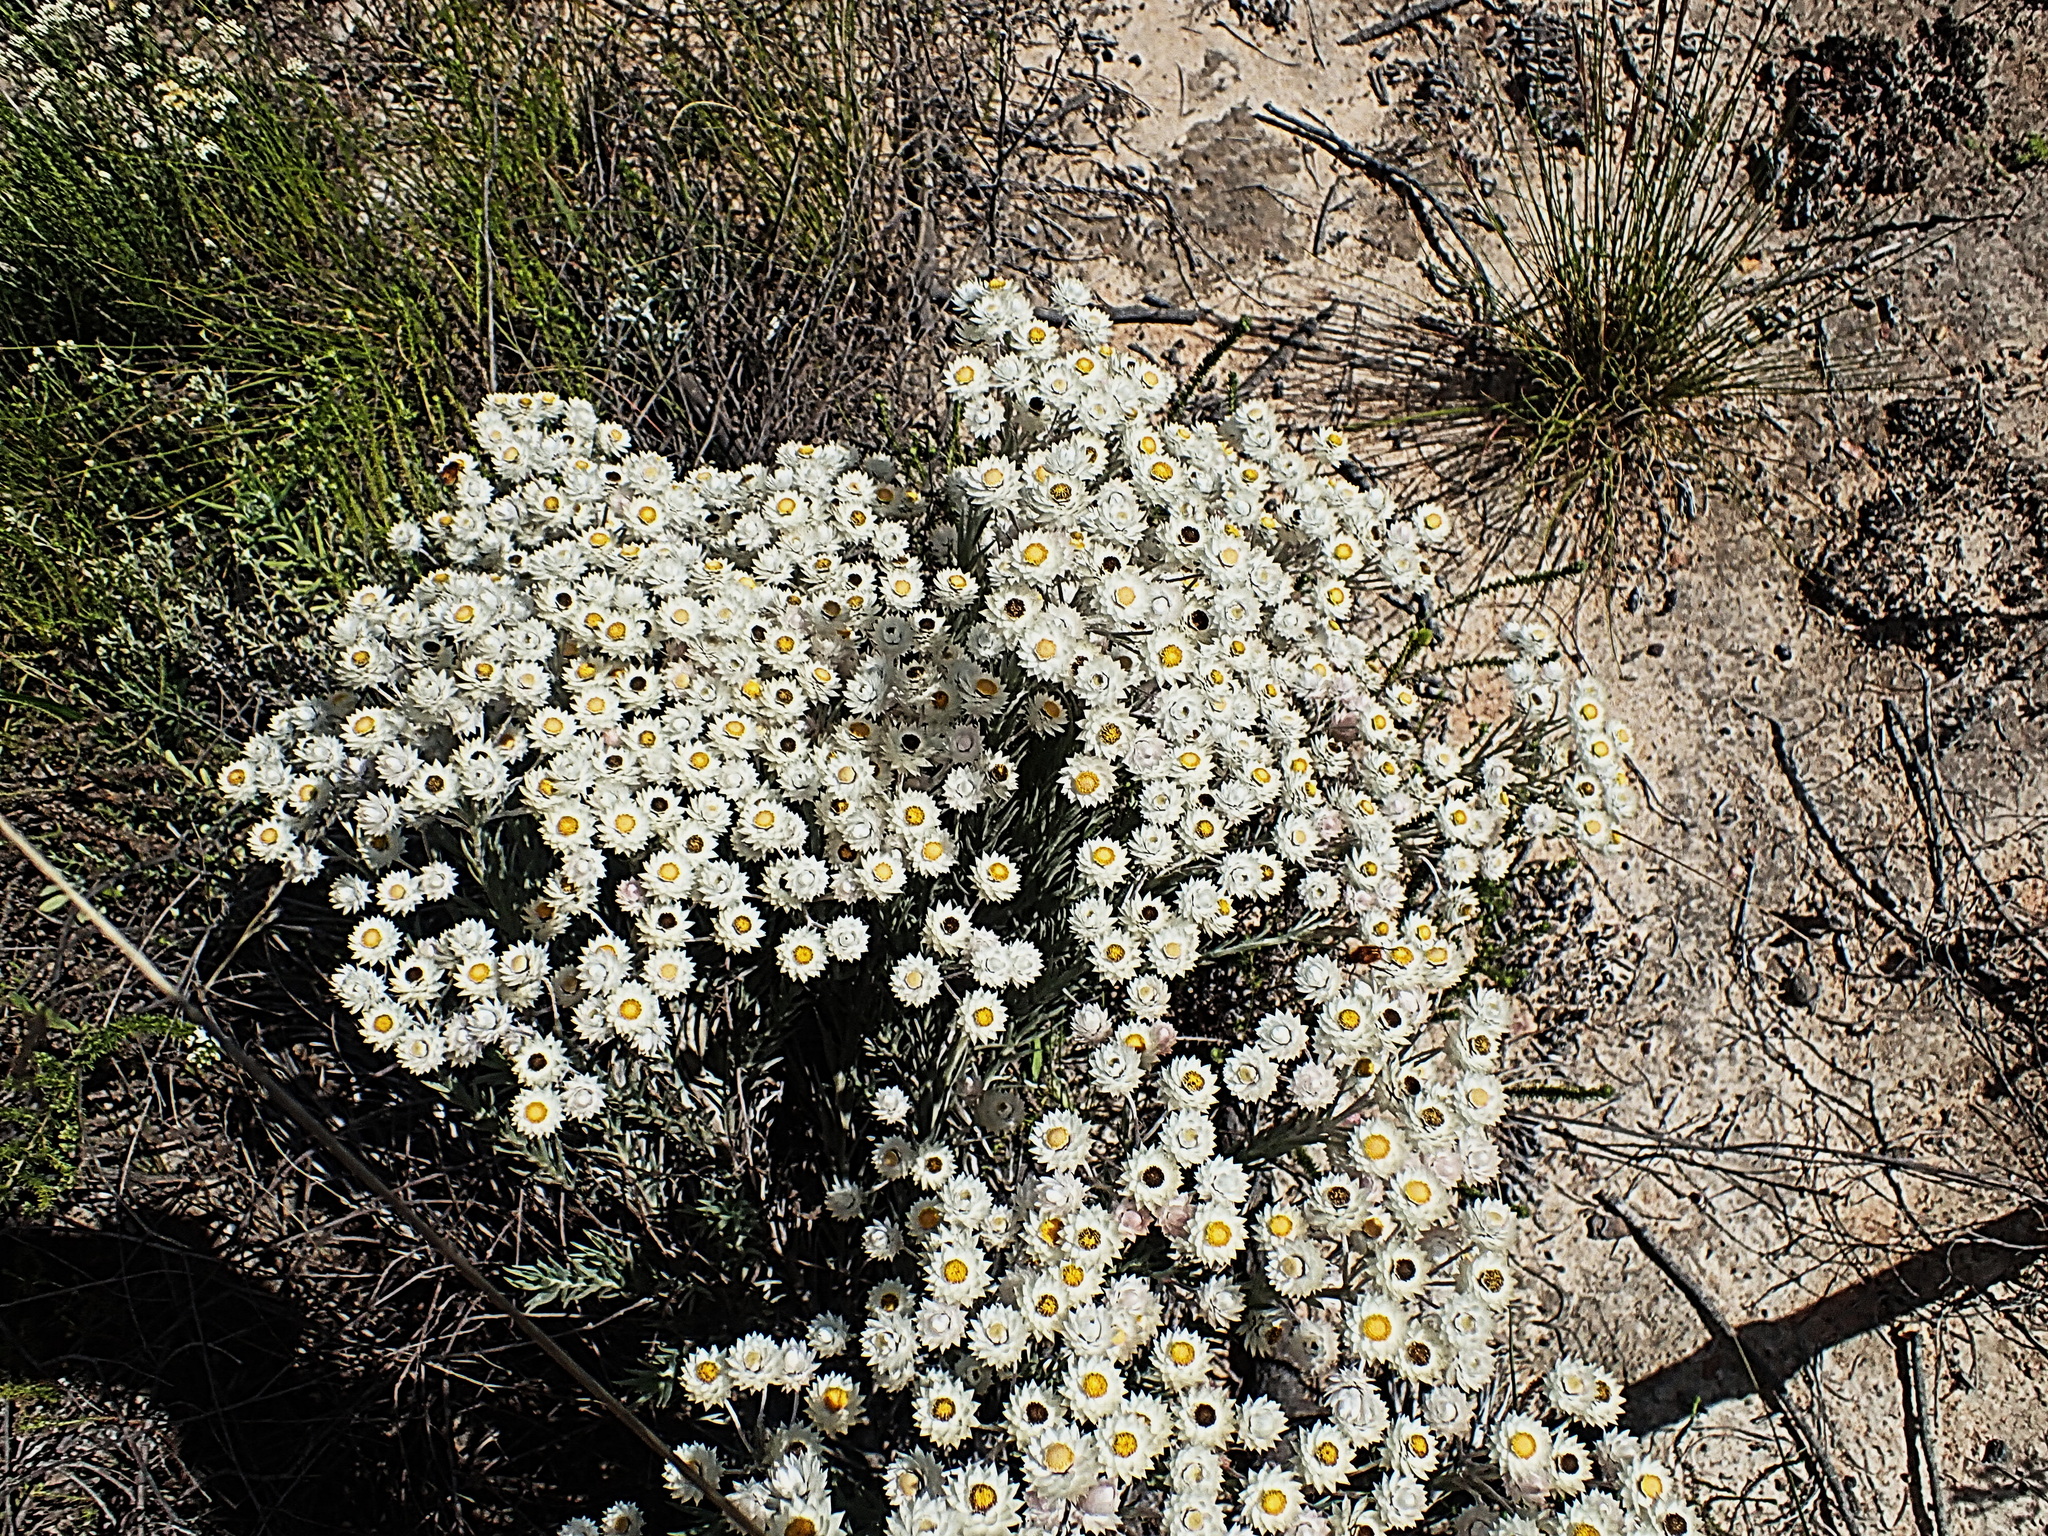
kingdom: Plantae
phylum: Tracheophyta
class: Magnoliopsida
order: Asterales
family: Asteraceae
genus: Achyranthemum
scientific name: Achyranthemum paniculatum
